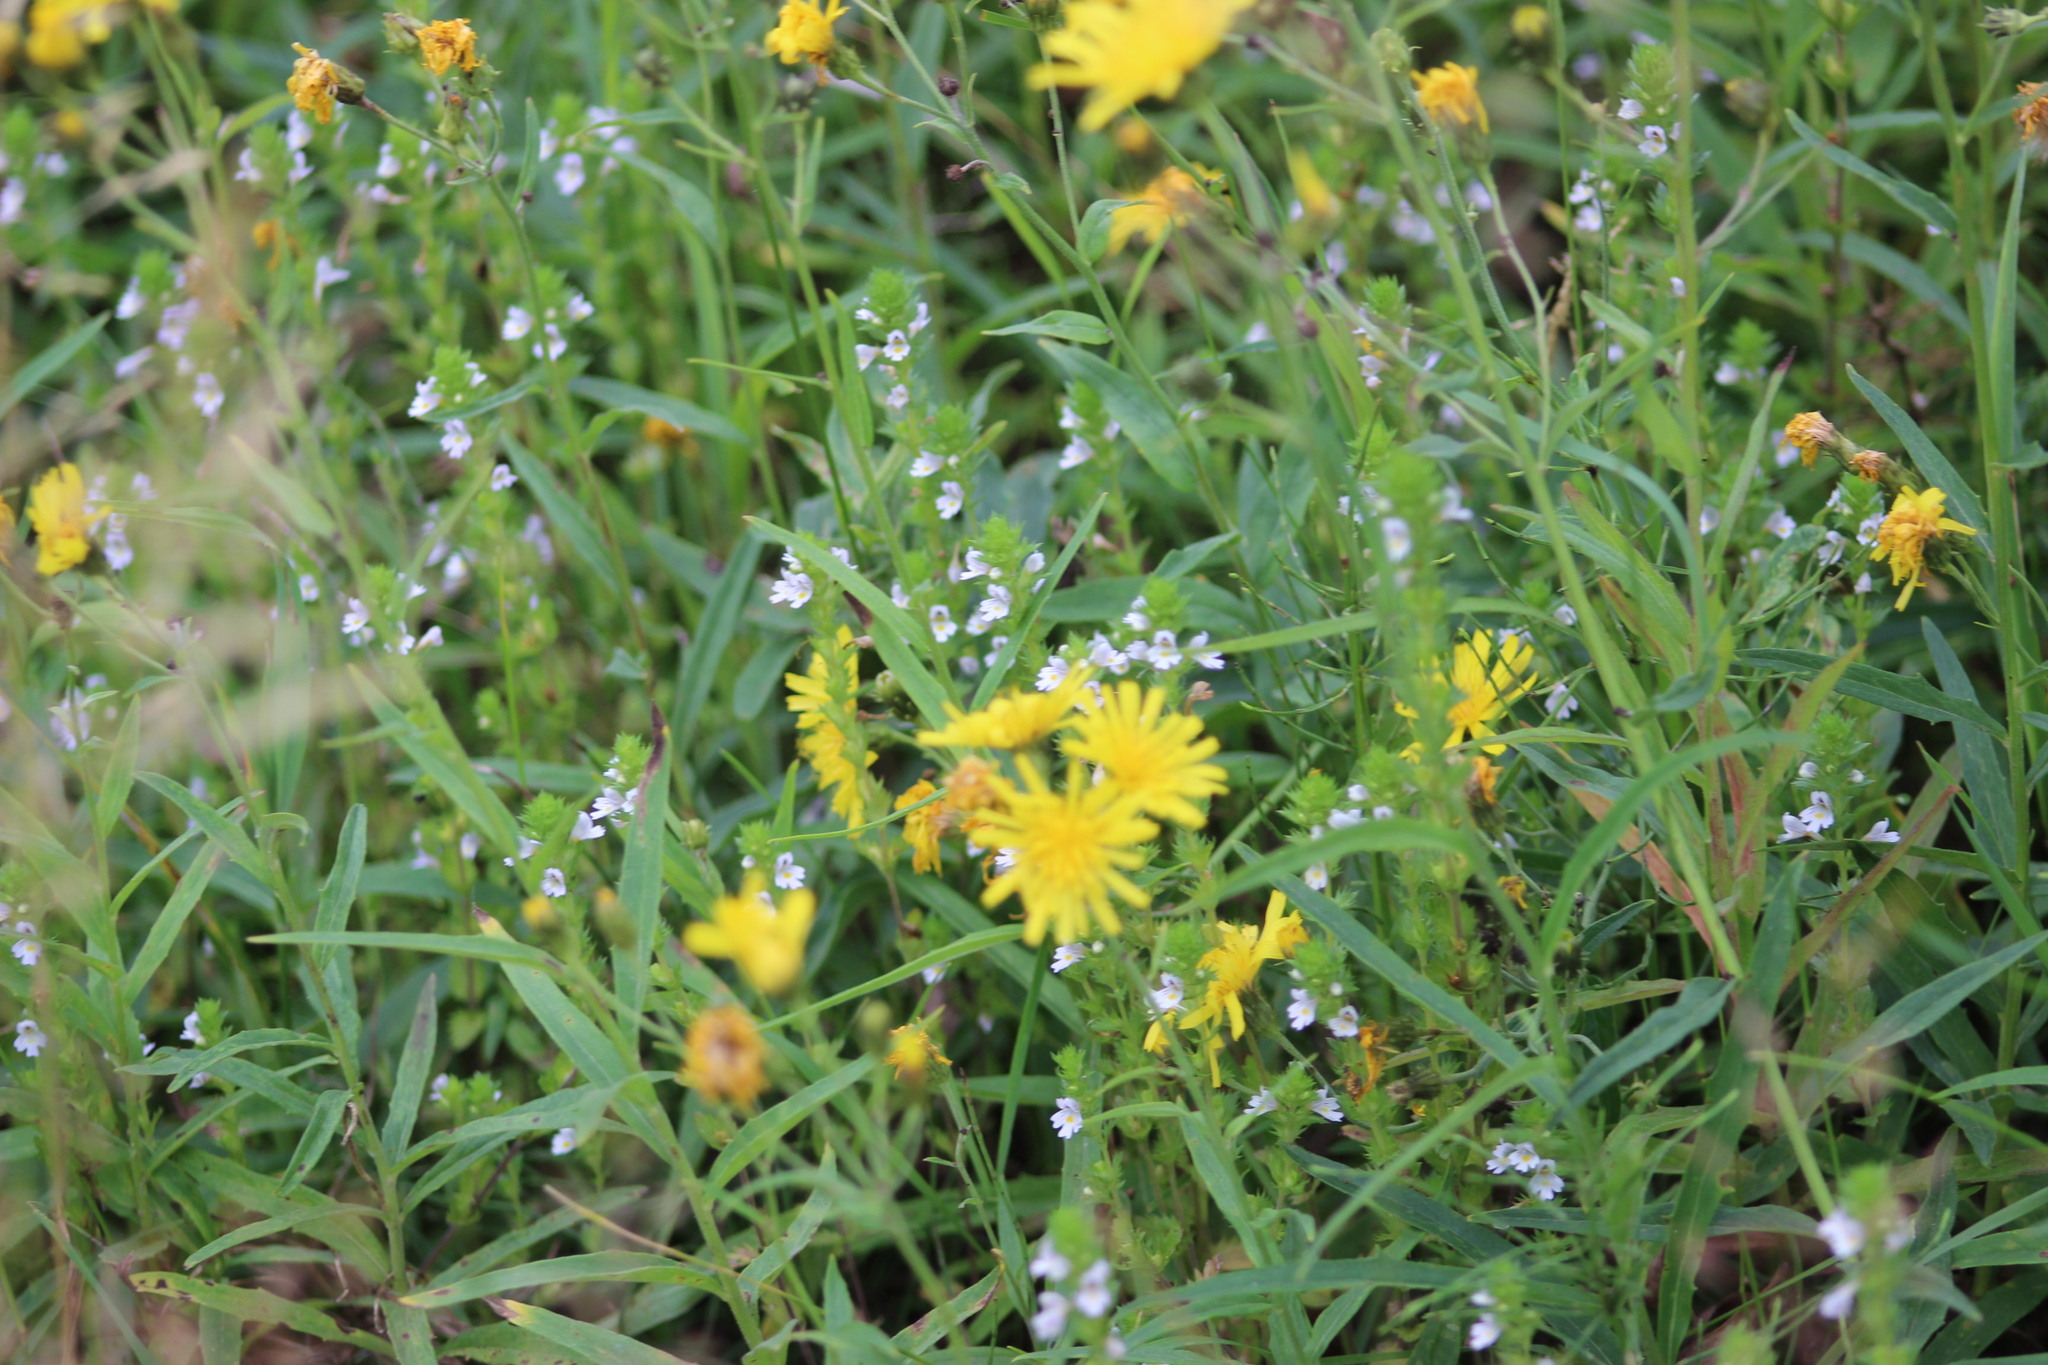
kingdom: Plantae
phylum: Tracheophyta
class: Magnoliopsida
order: Asterales
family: Asteraceae
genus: Crepis
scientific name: Crepis tectorum
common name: Narrow-leaved hawk's-beard
